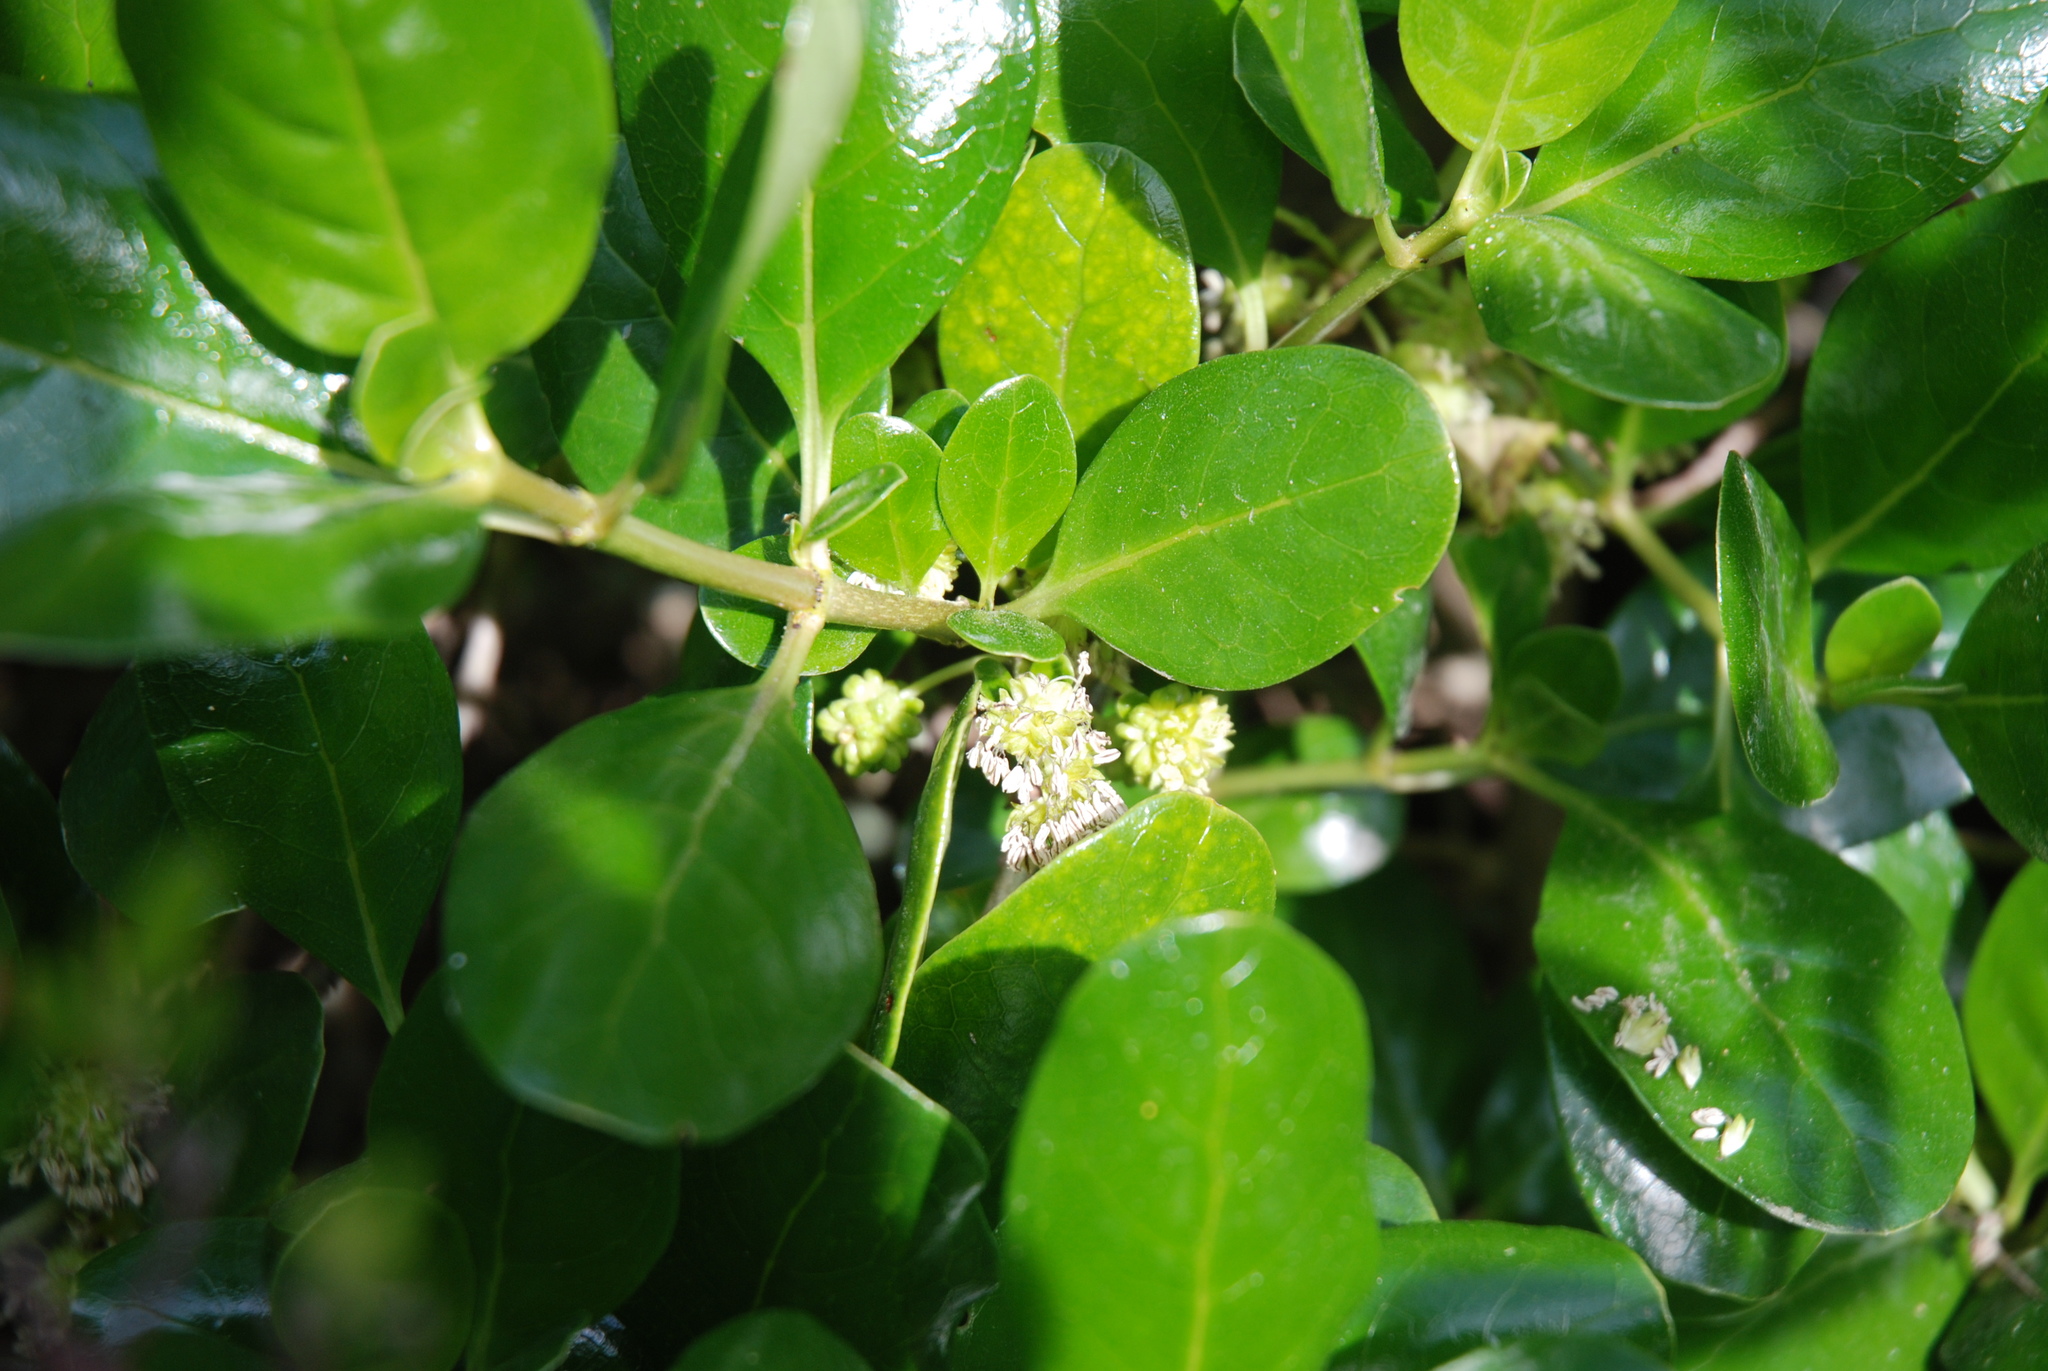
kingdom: Plantae
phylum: Tracheophyta
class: Magnoliopsida
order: Gentianales
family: Rubiaceae
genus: Coprosma
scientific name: Coprosma repens
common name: Tree bedstraw
